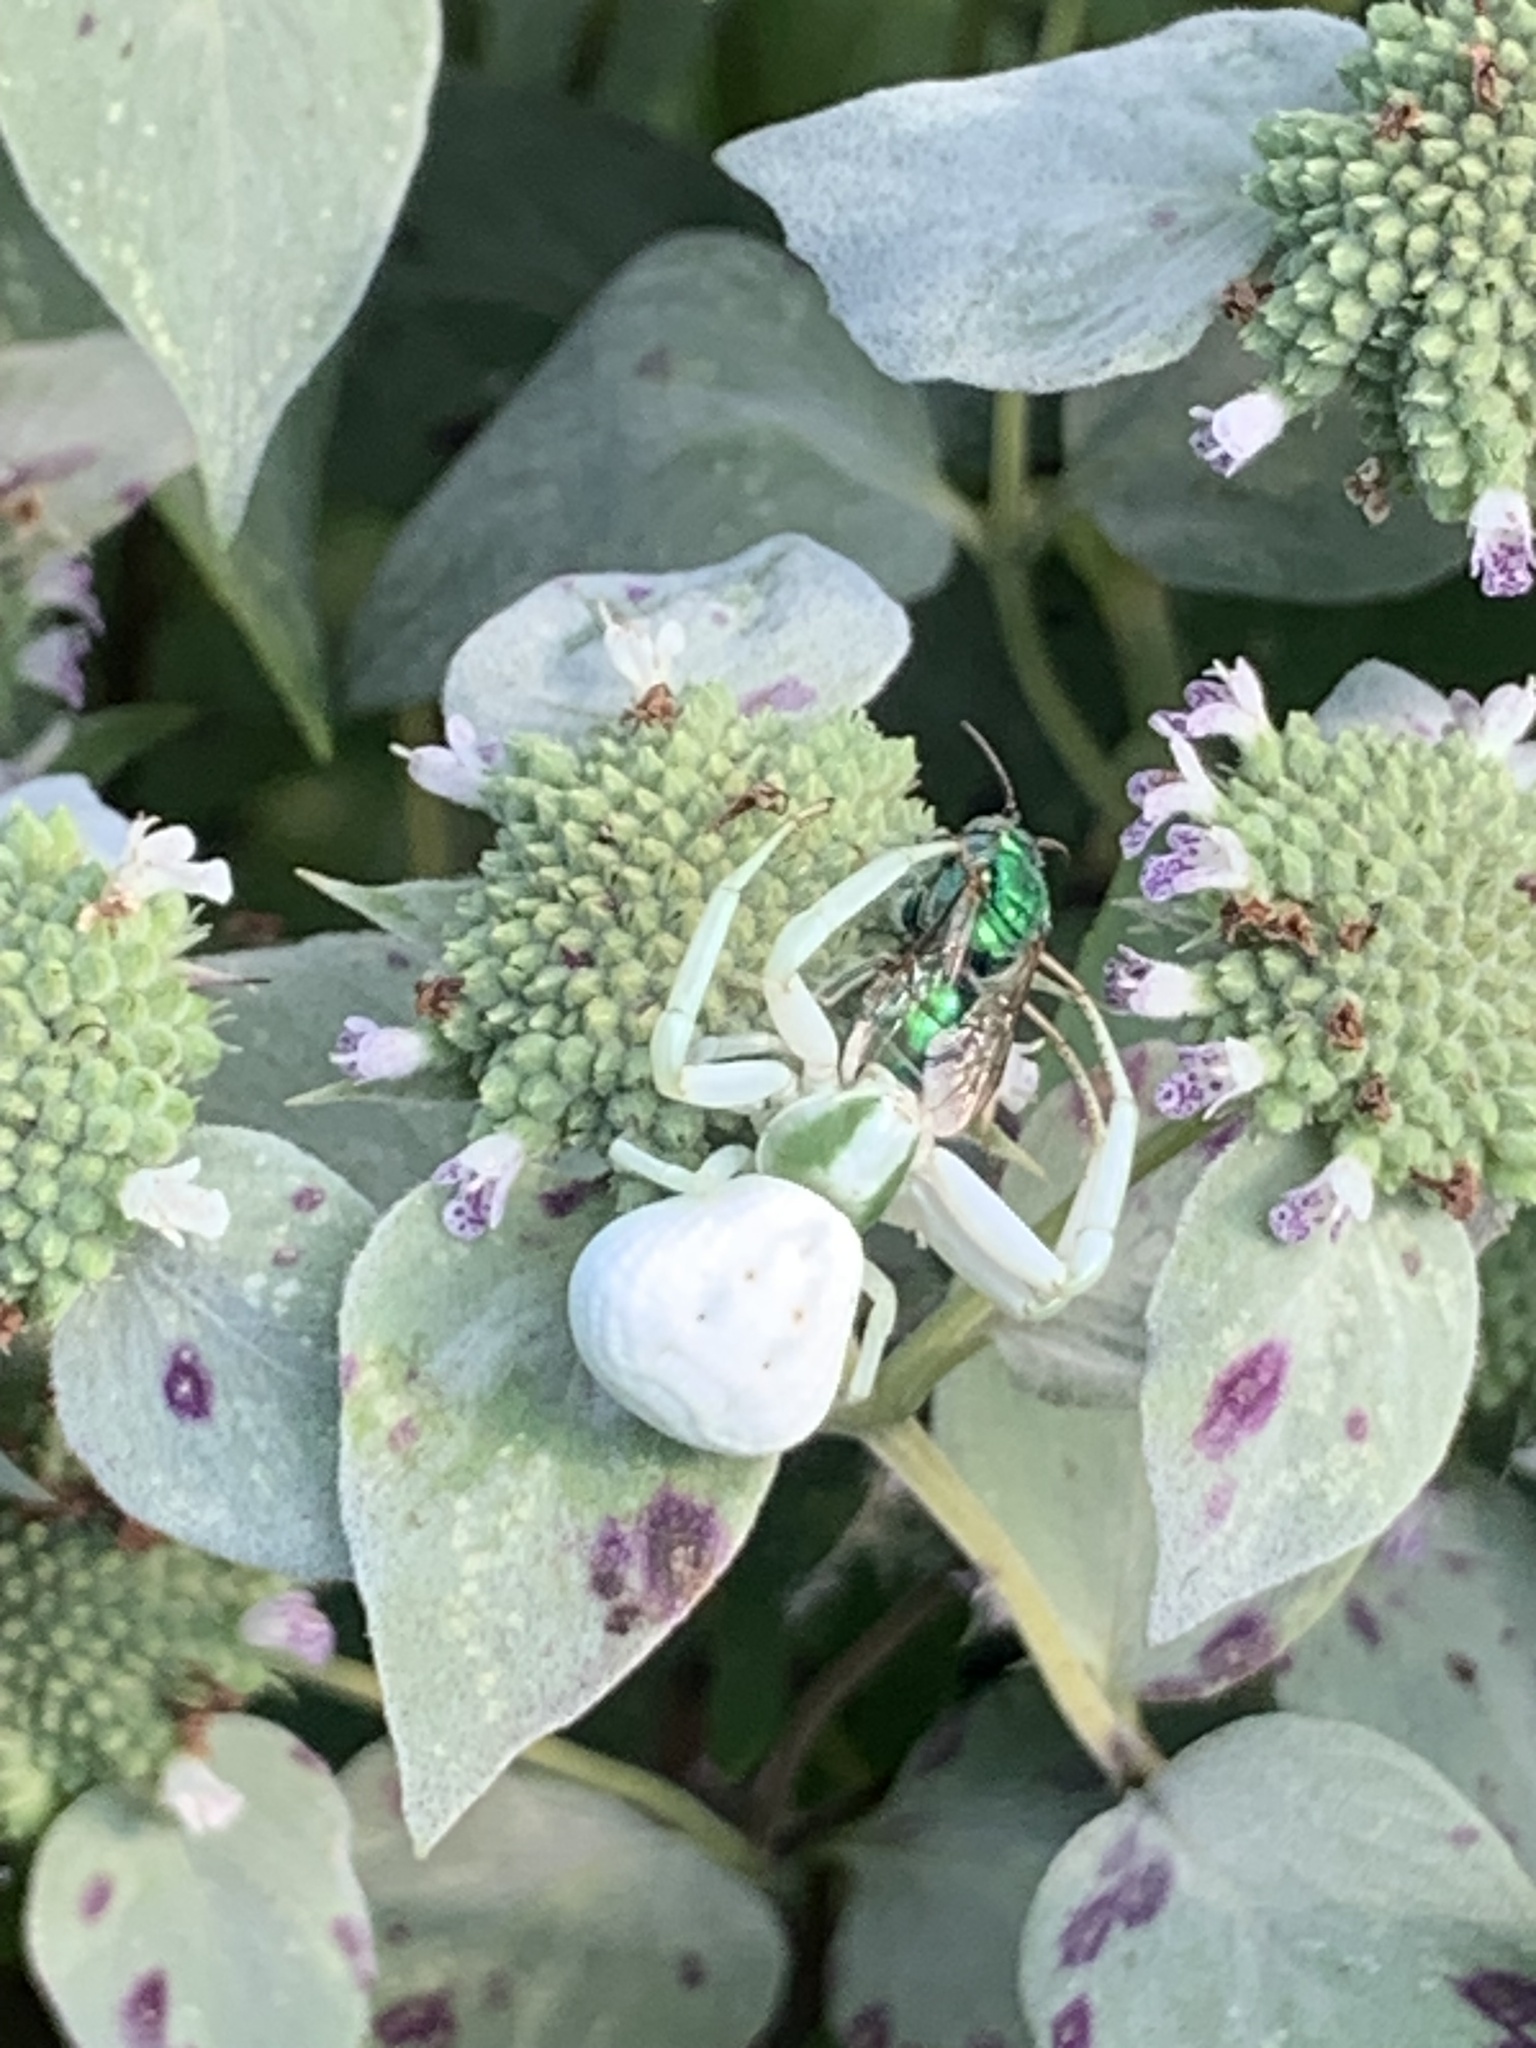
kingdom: Animalia
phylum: Arthropoda
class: Arachnida
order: Araneae
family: Thomisidae
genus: Misumenoides
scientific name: Misumenoides formosipes
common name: White-banded crab spider
